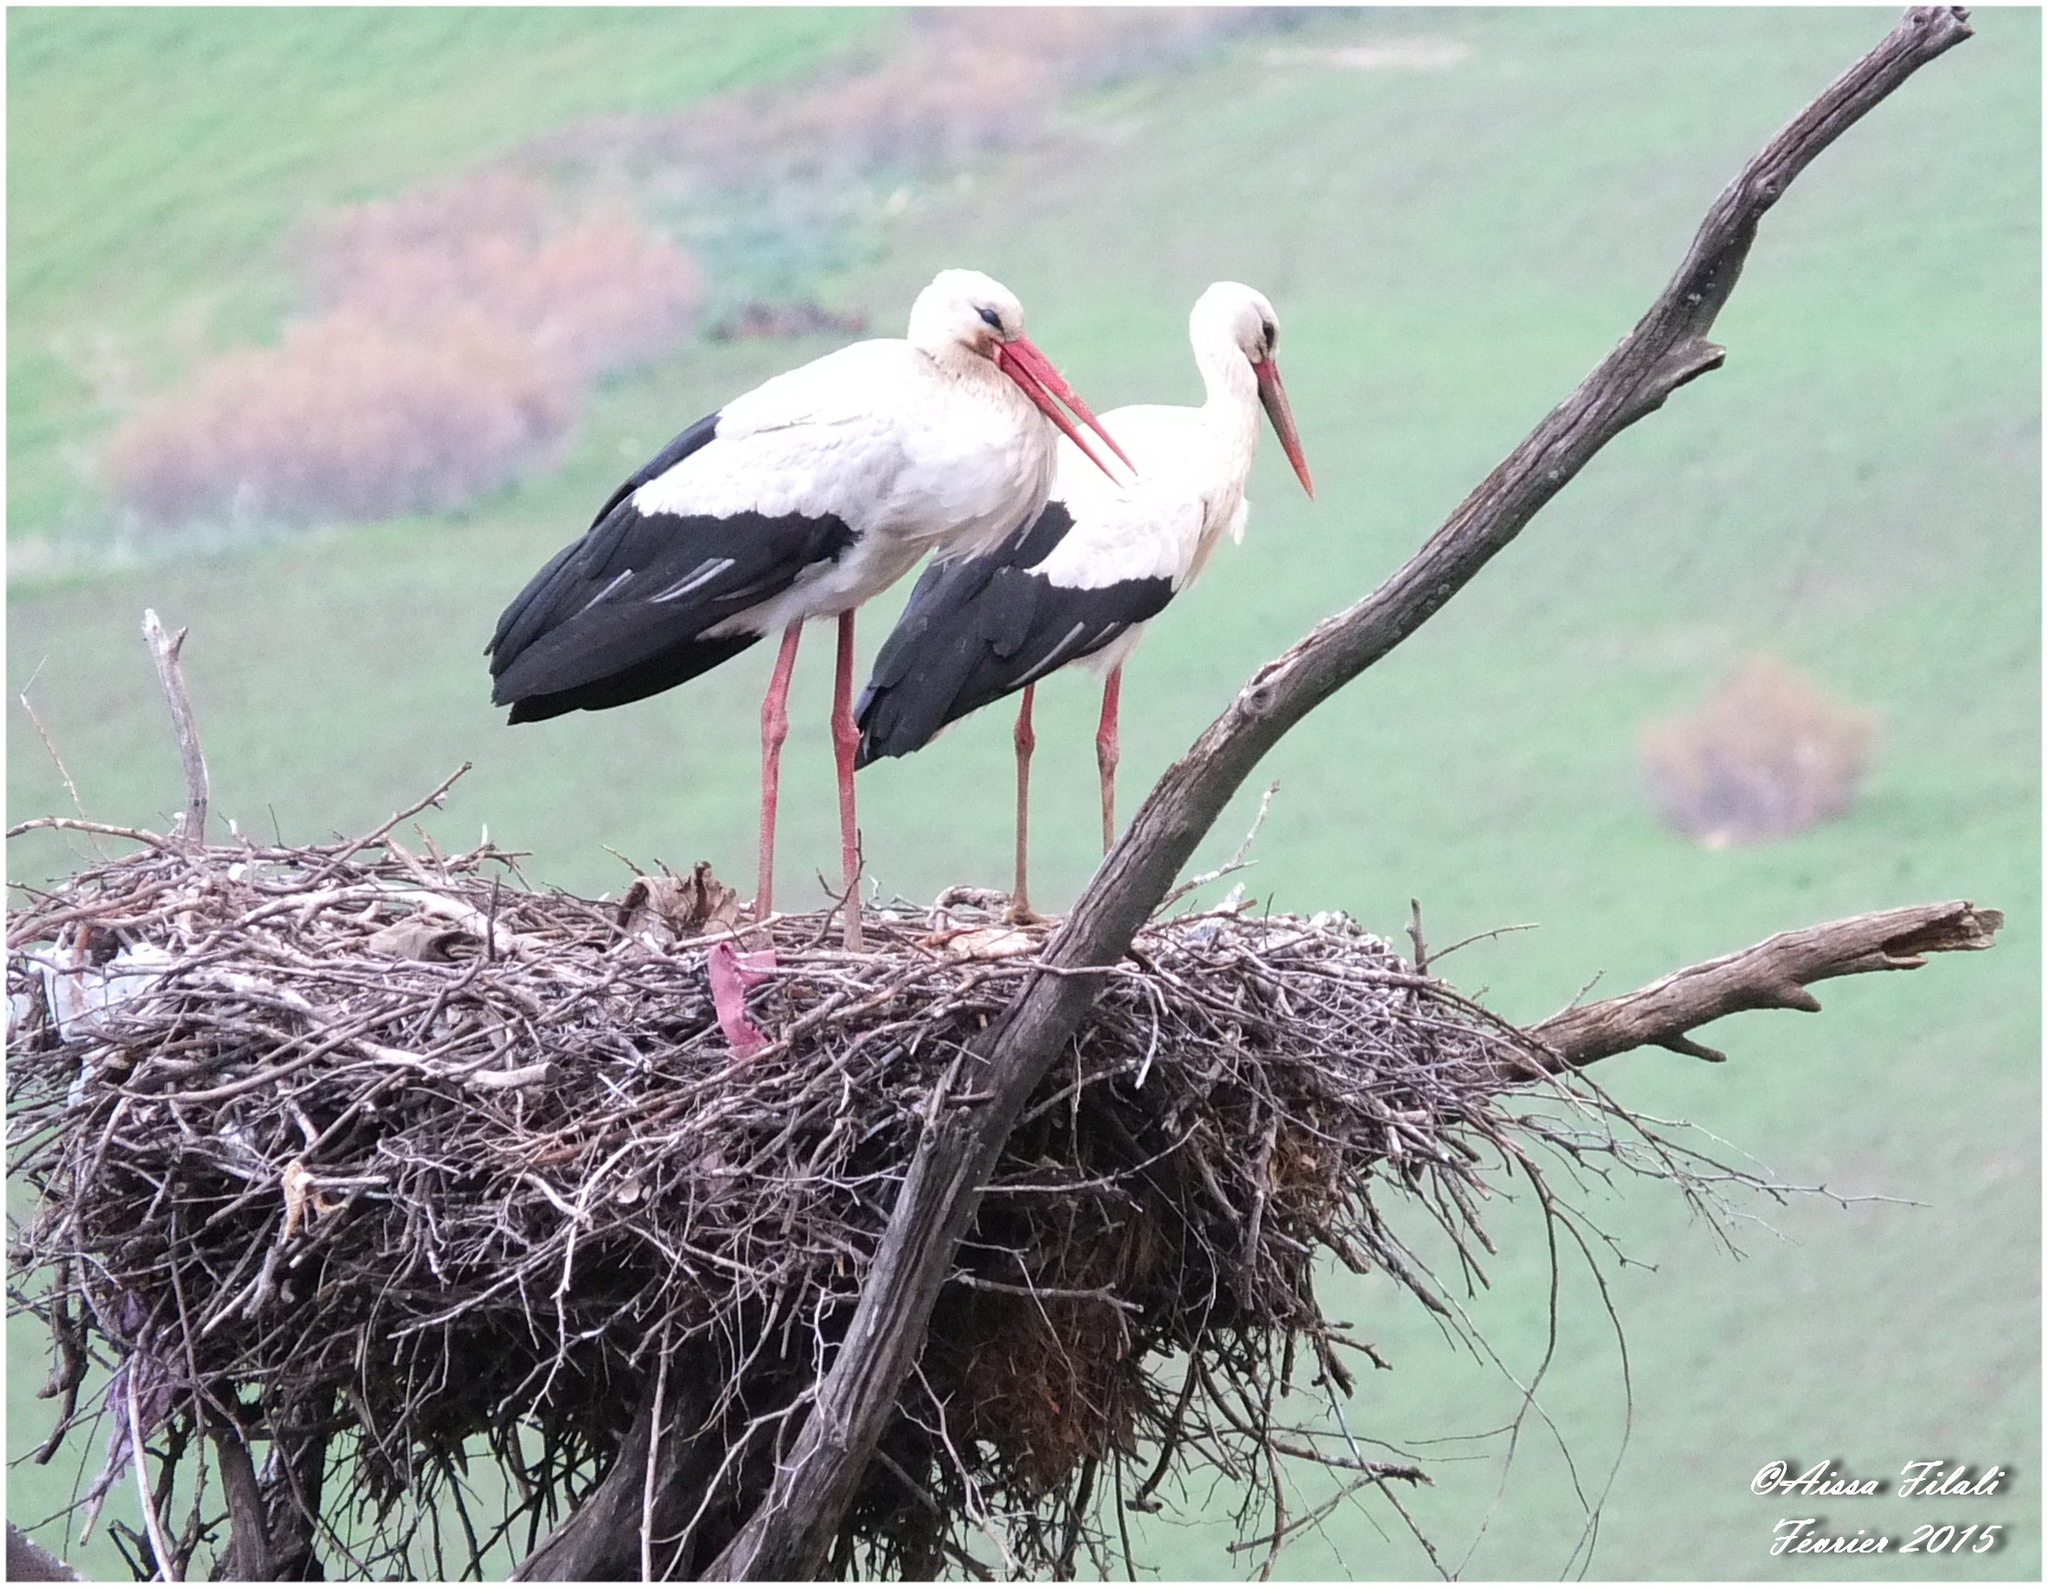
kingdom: Animalia
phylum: Chordata
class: Aves
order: Ciconiiformes
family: Ciconiidae
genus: Ciconia
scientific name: Ciconia ciconia
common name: White stork
